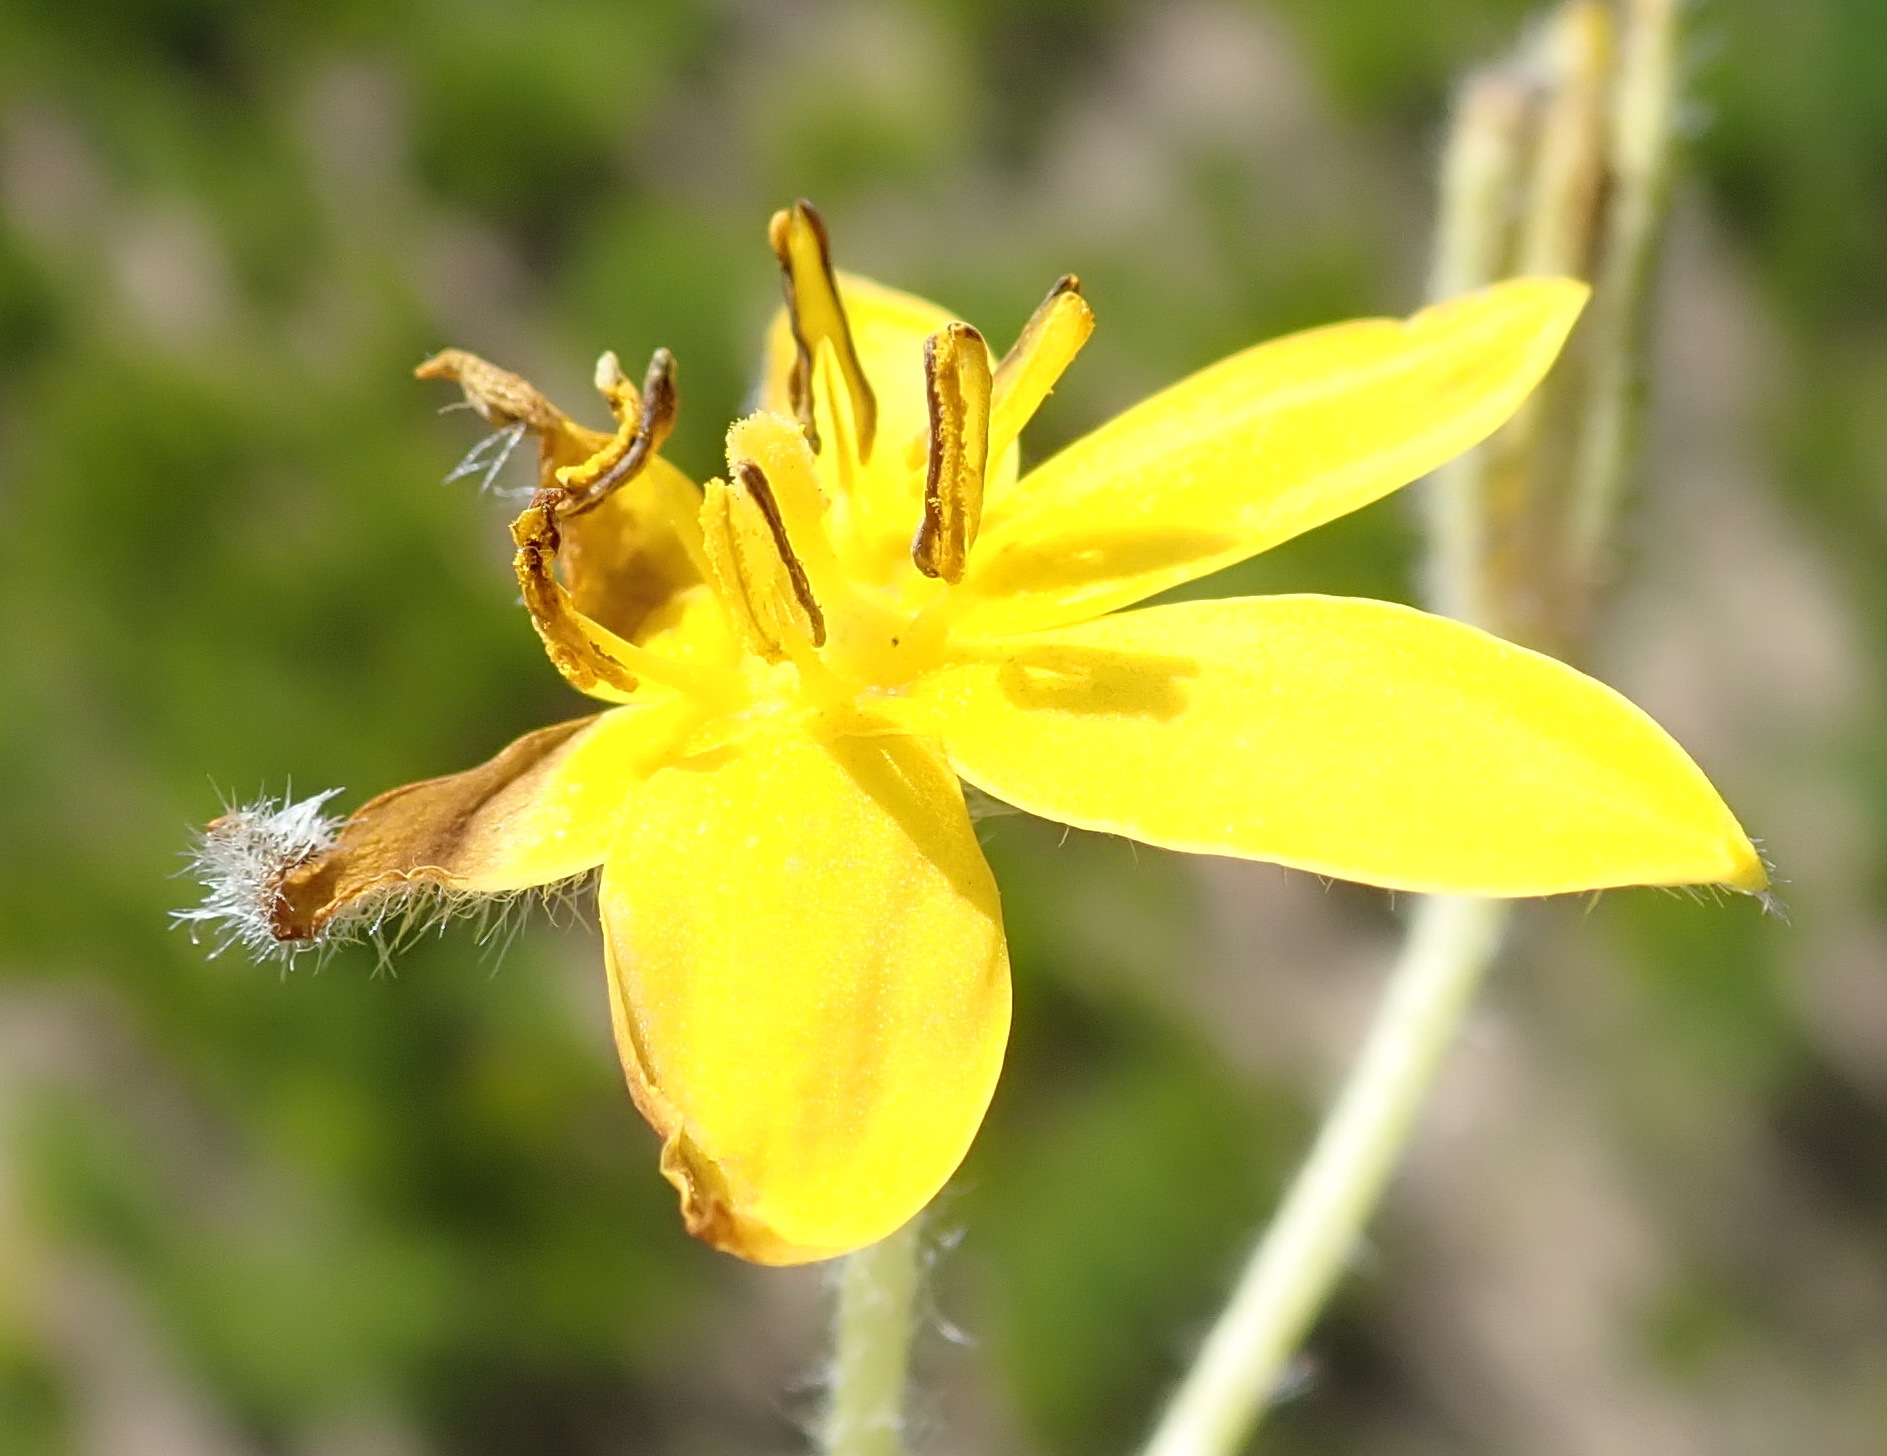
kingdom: Plantae
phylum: Tracheophyta
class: Liliopsida
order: Asparagales
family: Hypoxidaceae
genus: Hypoxis
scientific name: Hypoxis villosa
